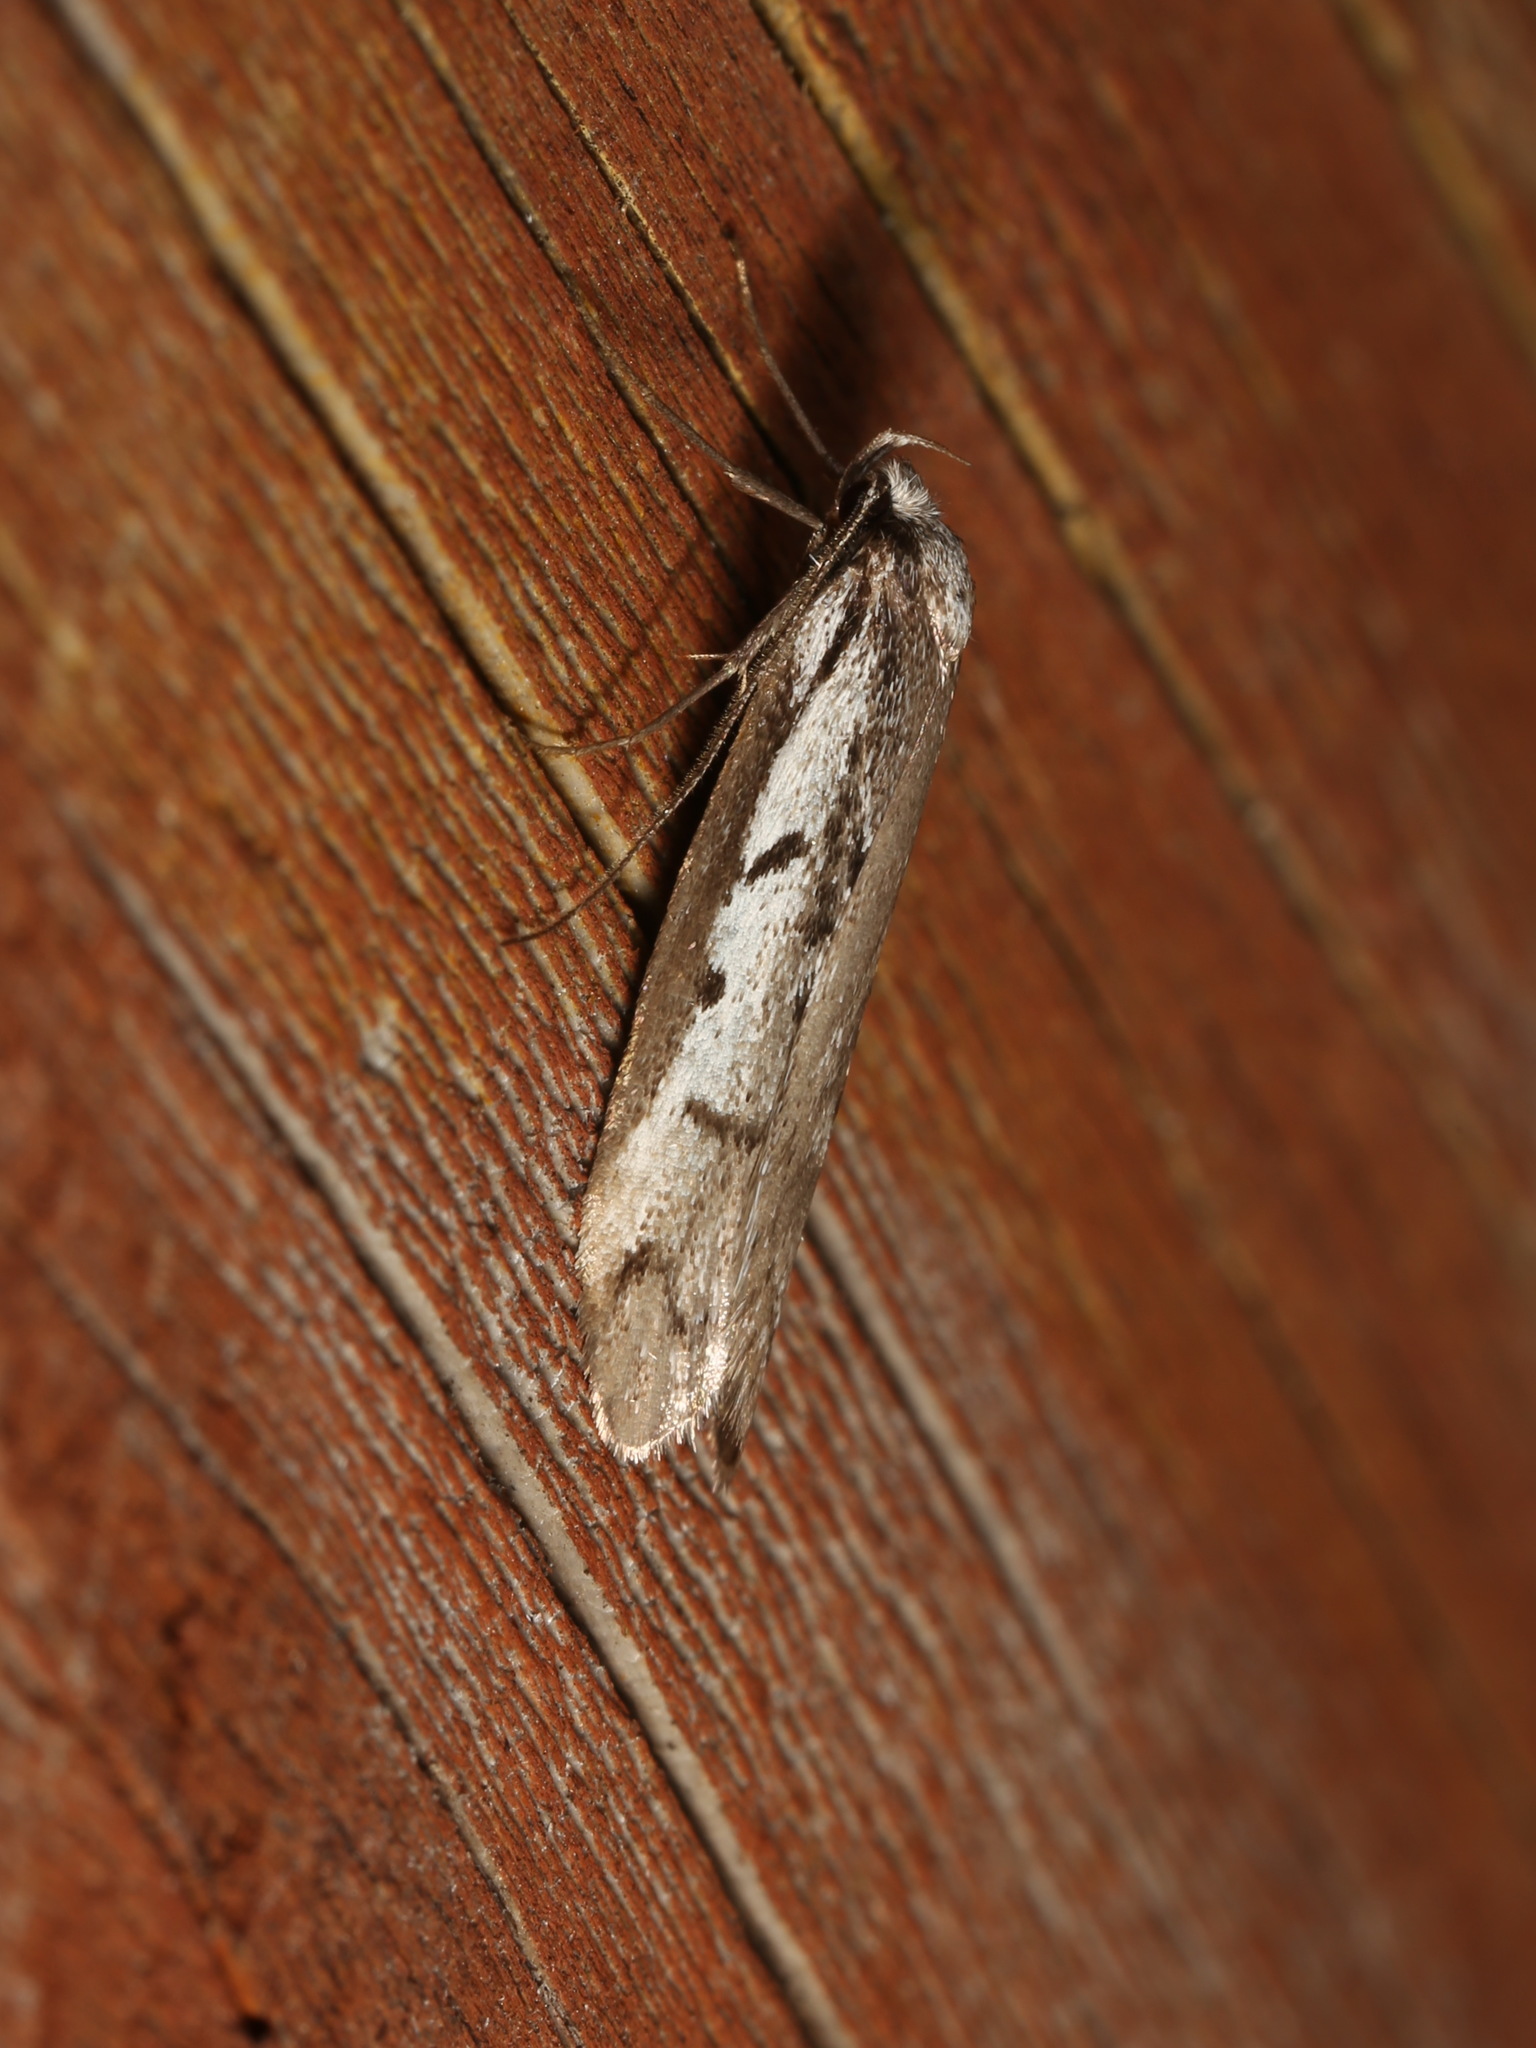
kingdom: Animalia
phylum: Arthropoda
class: Insecta
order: Lepidoptera
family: Oecophoridae
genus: Philobota
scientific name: Philobota stella
